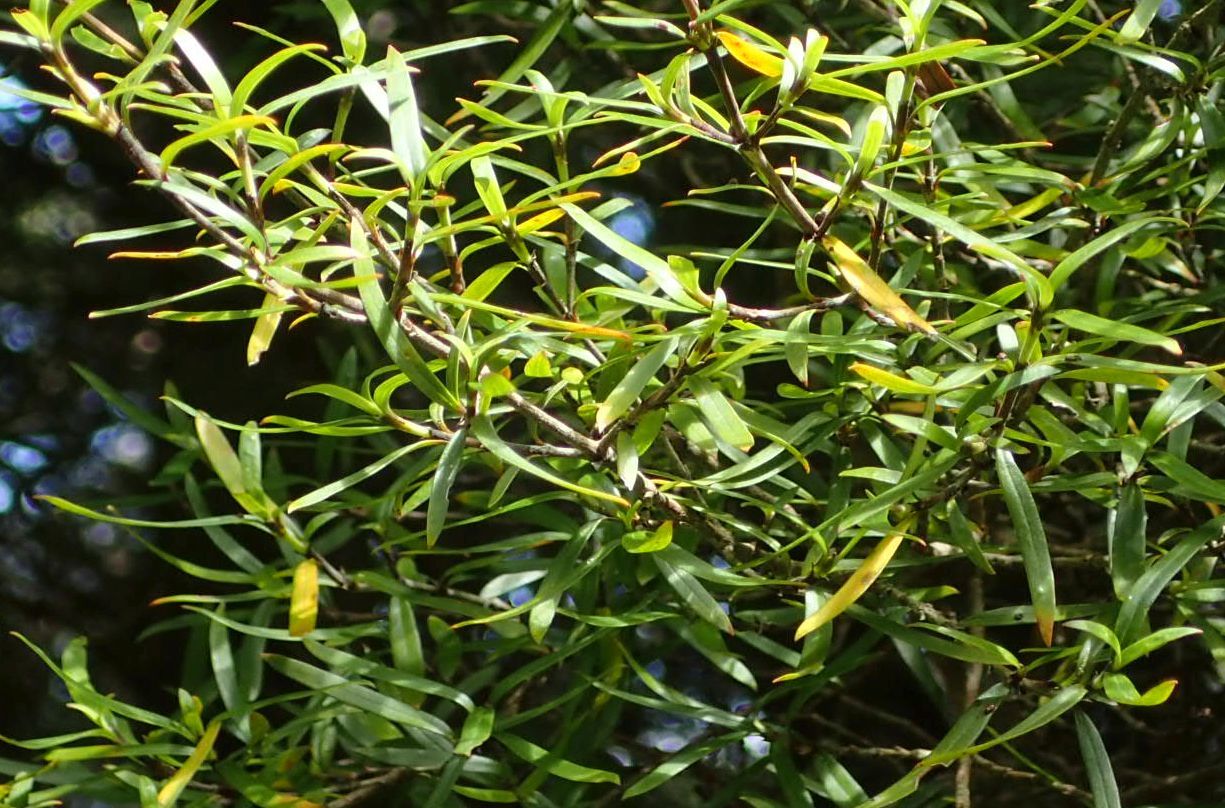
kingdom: Plantae
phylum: Tracheophyta
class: Magnoliopsida
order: Gentianales
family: Rubiaceae
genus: Coprosma
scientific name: Coprosma linariifolia
